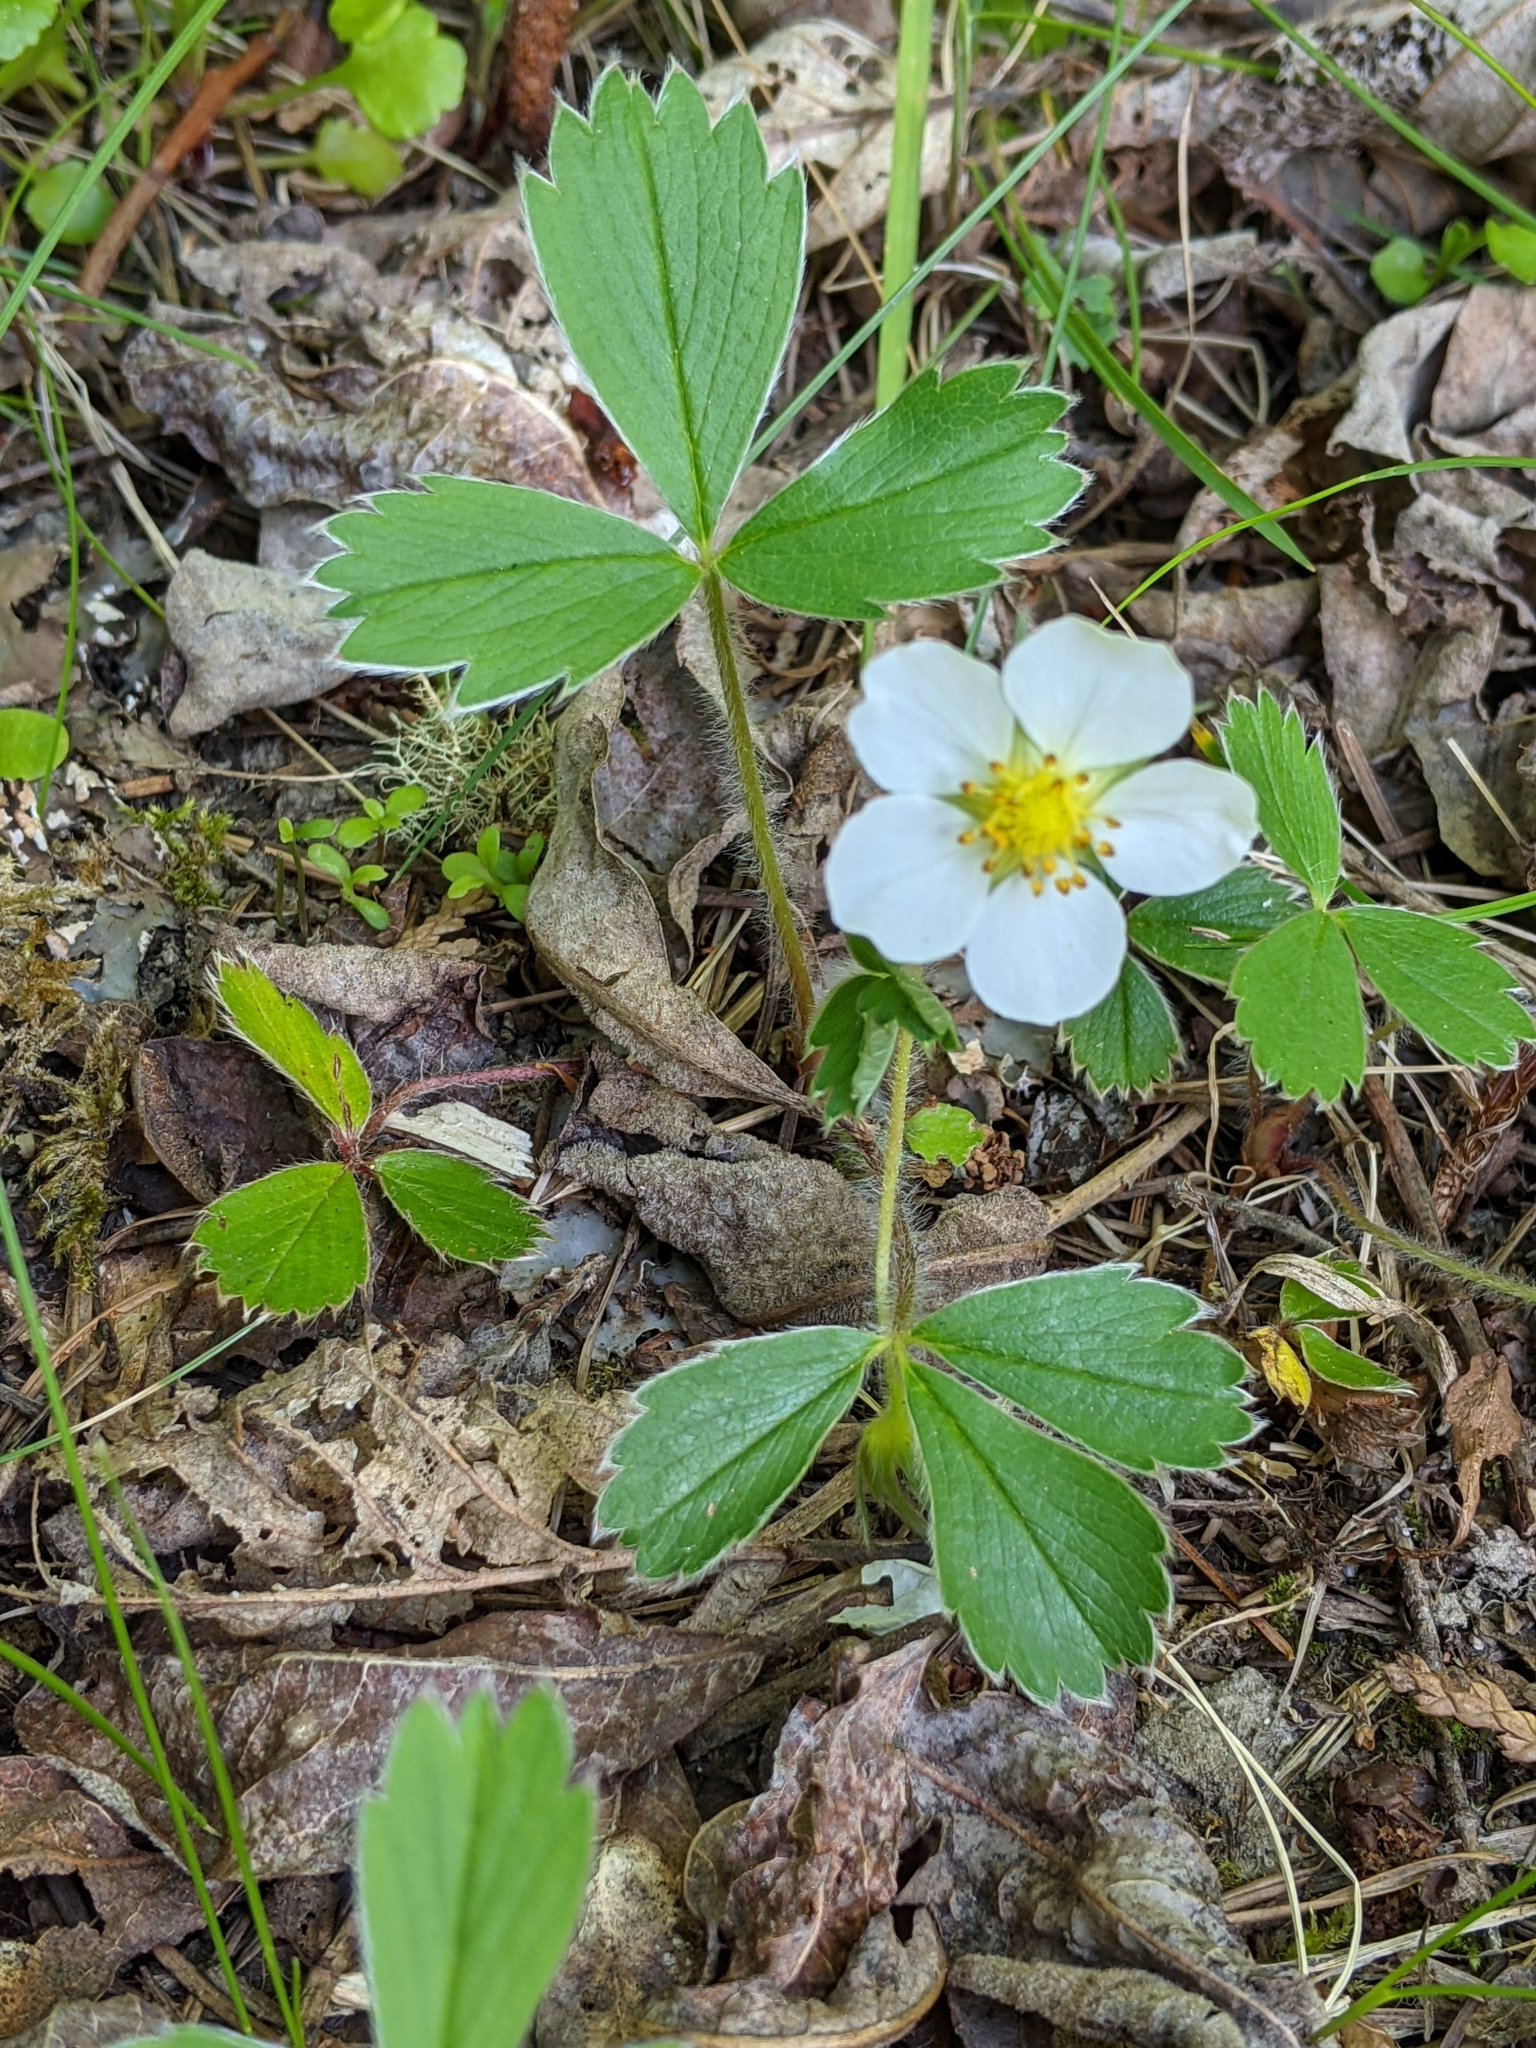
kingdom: Plantae
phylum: Tracheophyta
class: Magnoliopsida
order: Rosales
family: Rosaceae
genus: Fragaria
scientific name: Fragaria virginiana
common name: Thickleaved wild strawberry
